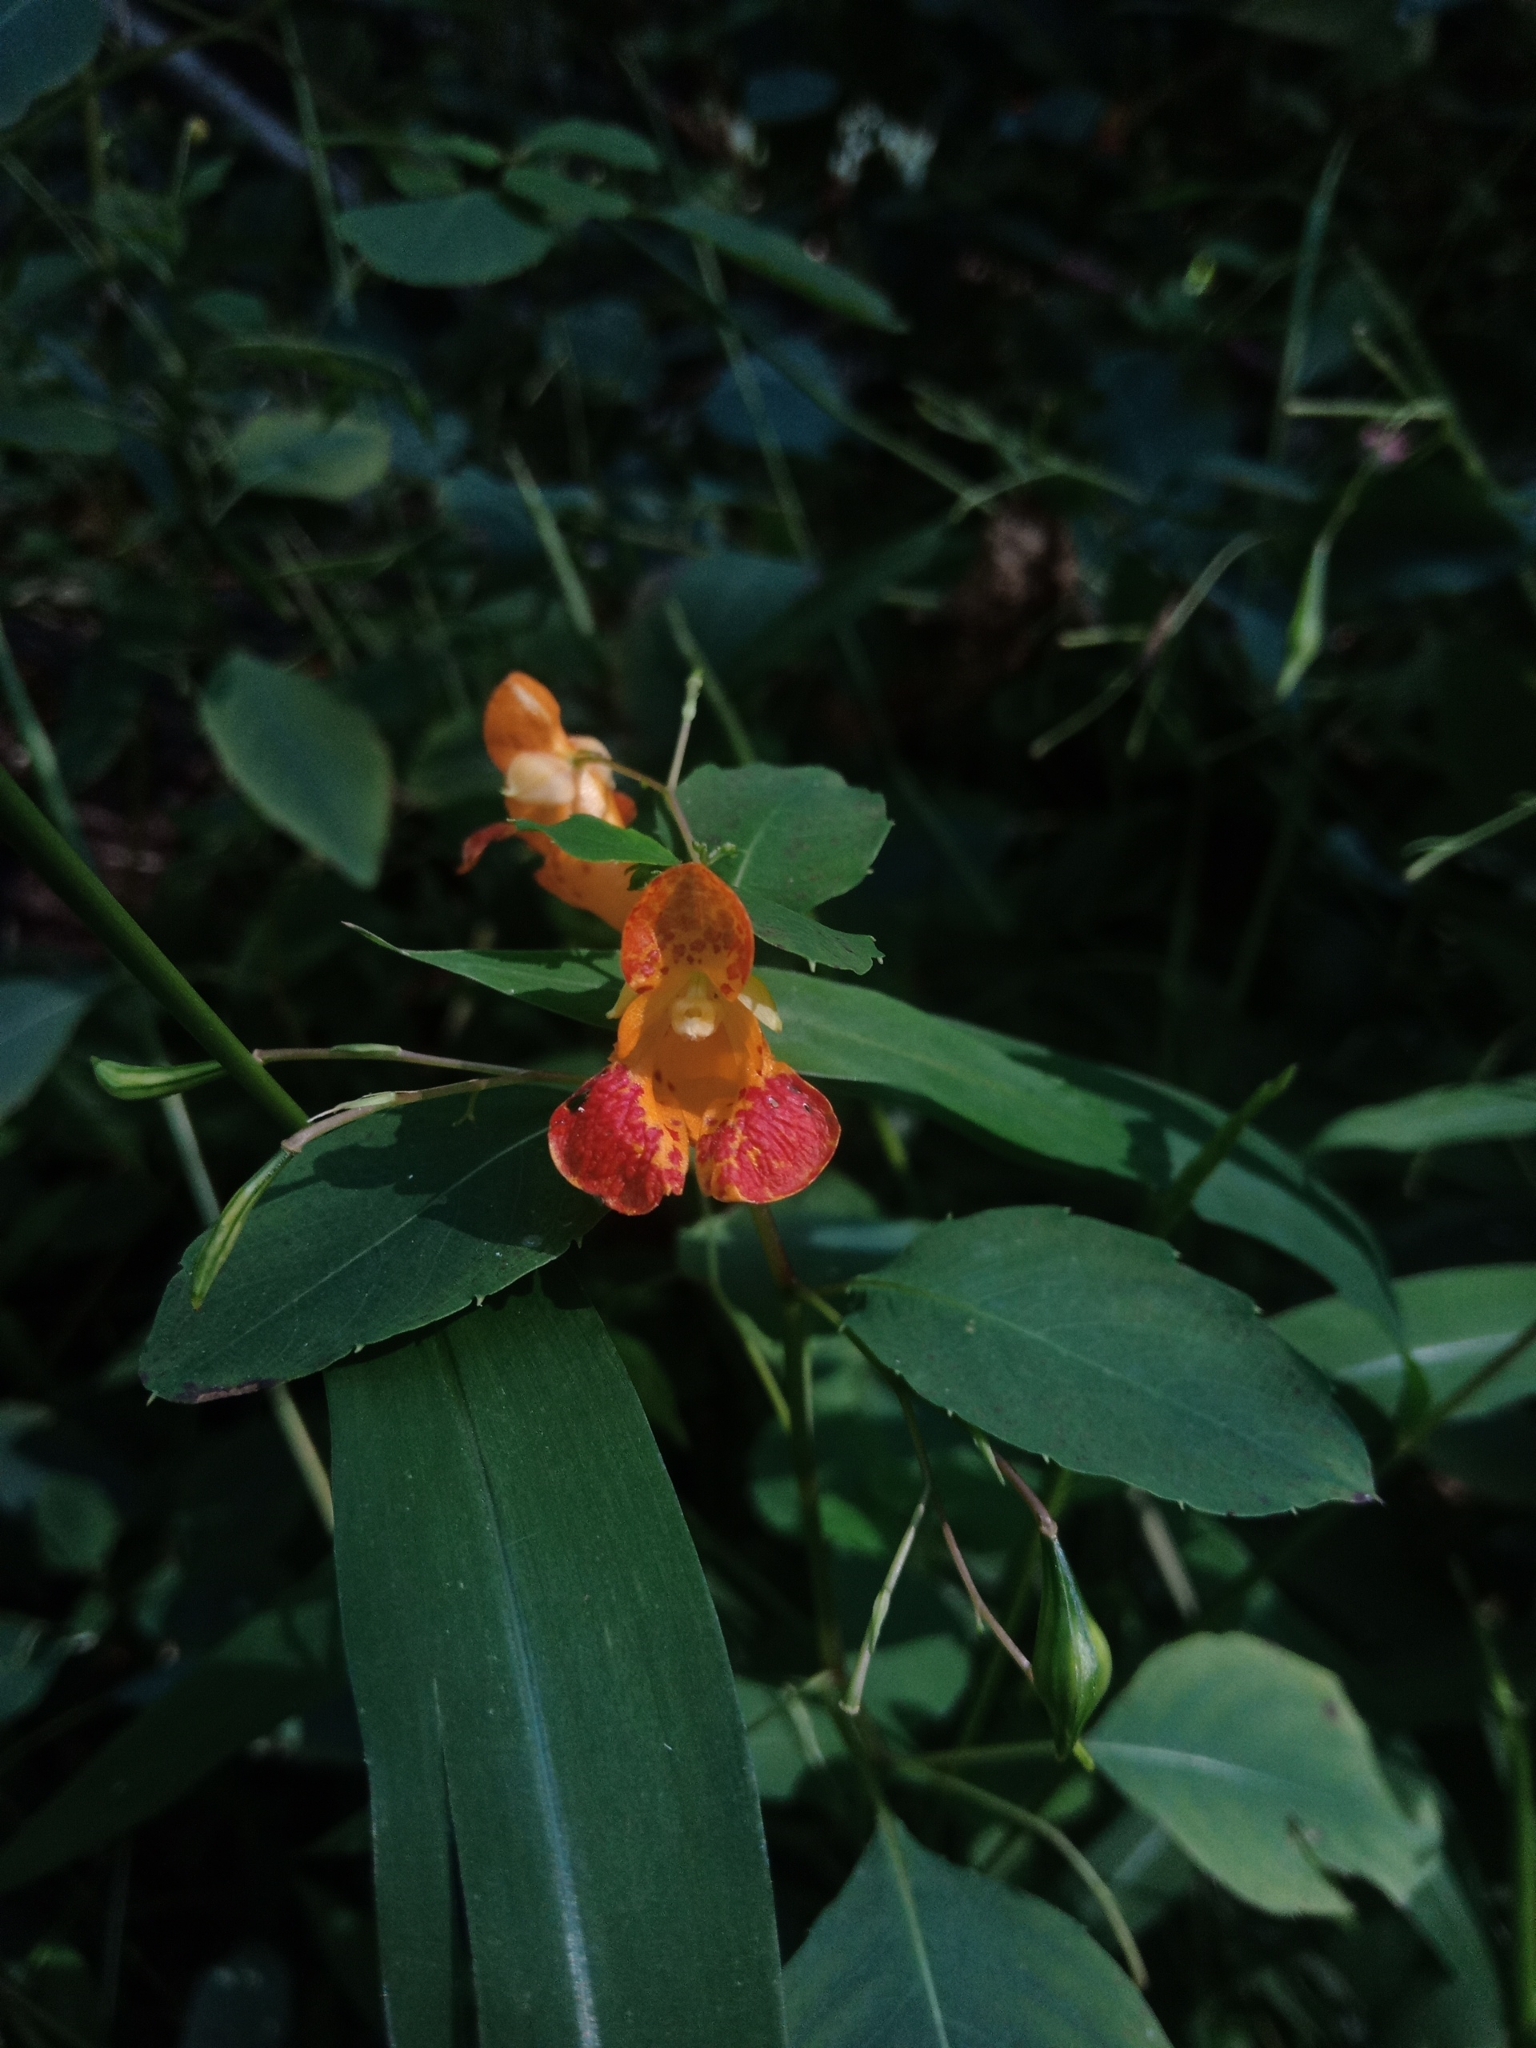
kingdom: Plantae
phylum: Tracheophyta
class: Magnoliopsida
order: Ericales
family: Balsaminaceae
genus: Impatiens
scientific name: Impatiens capensis
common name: Orange balsam
